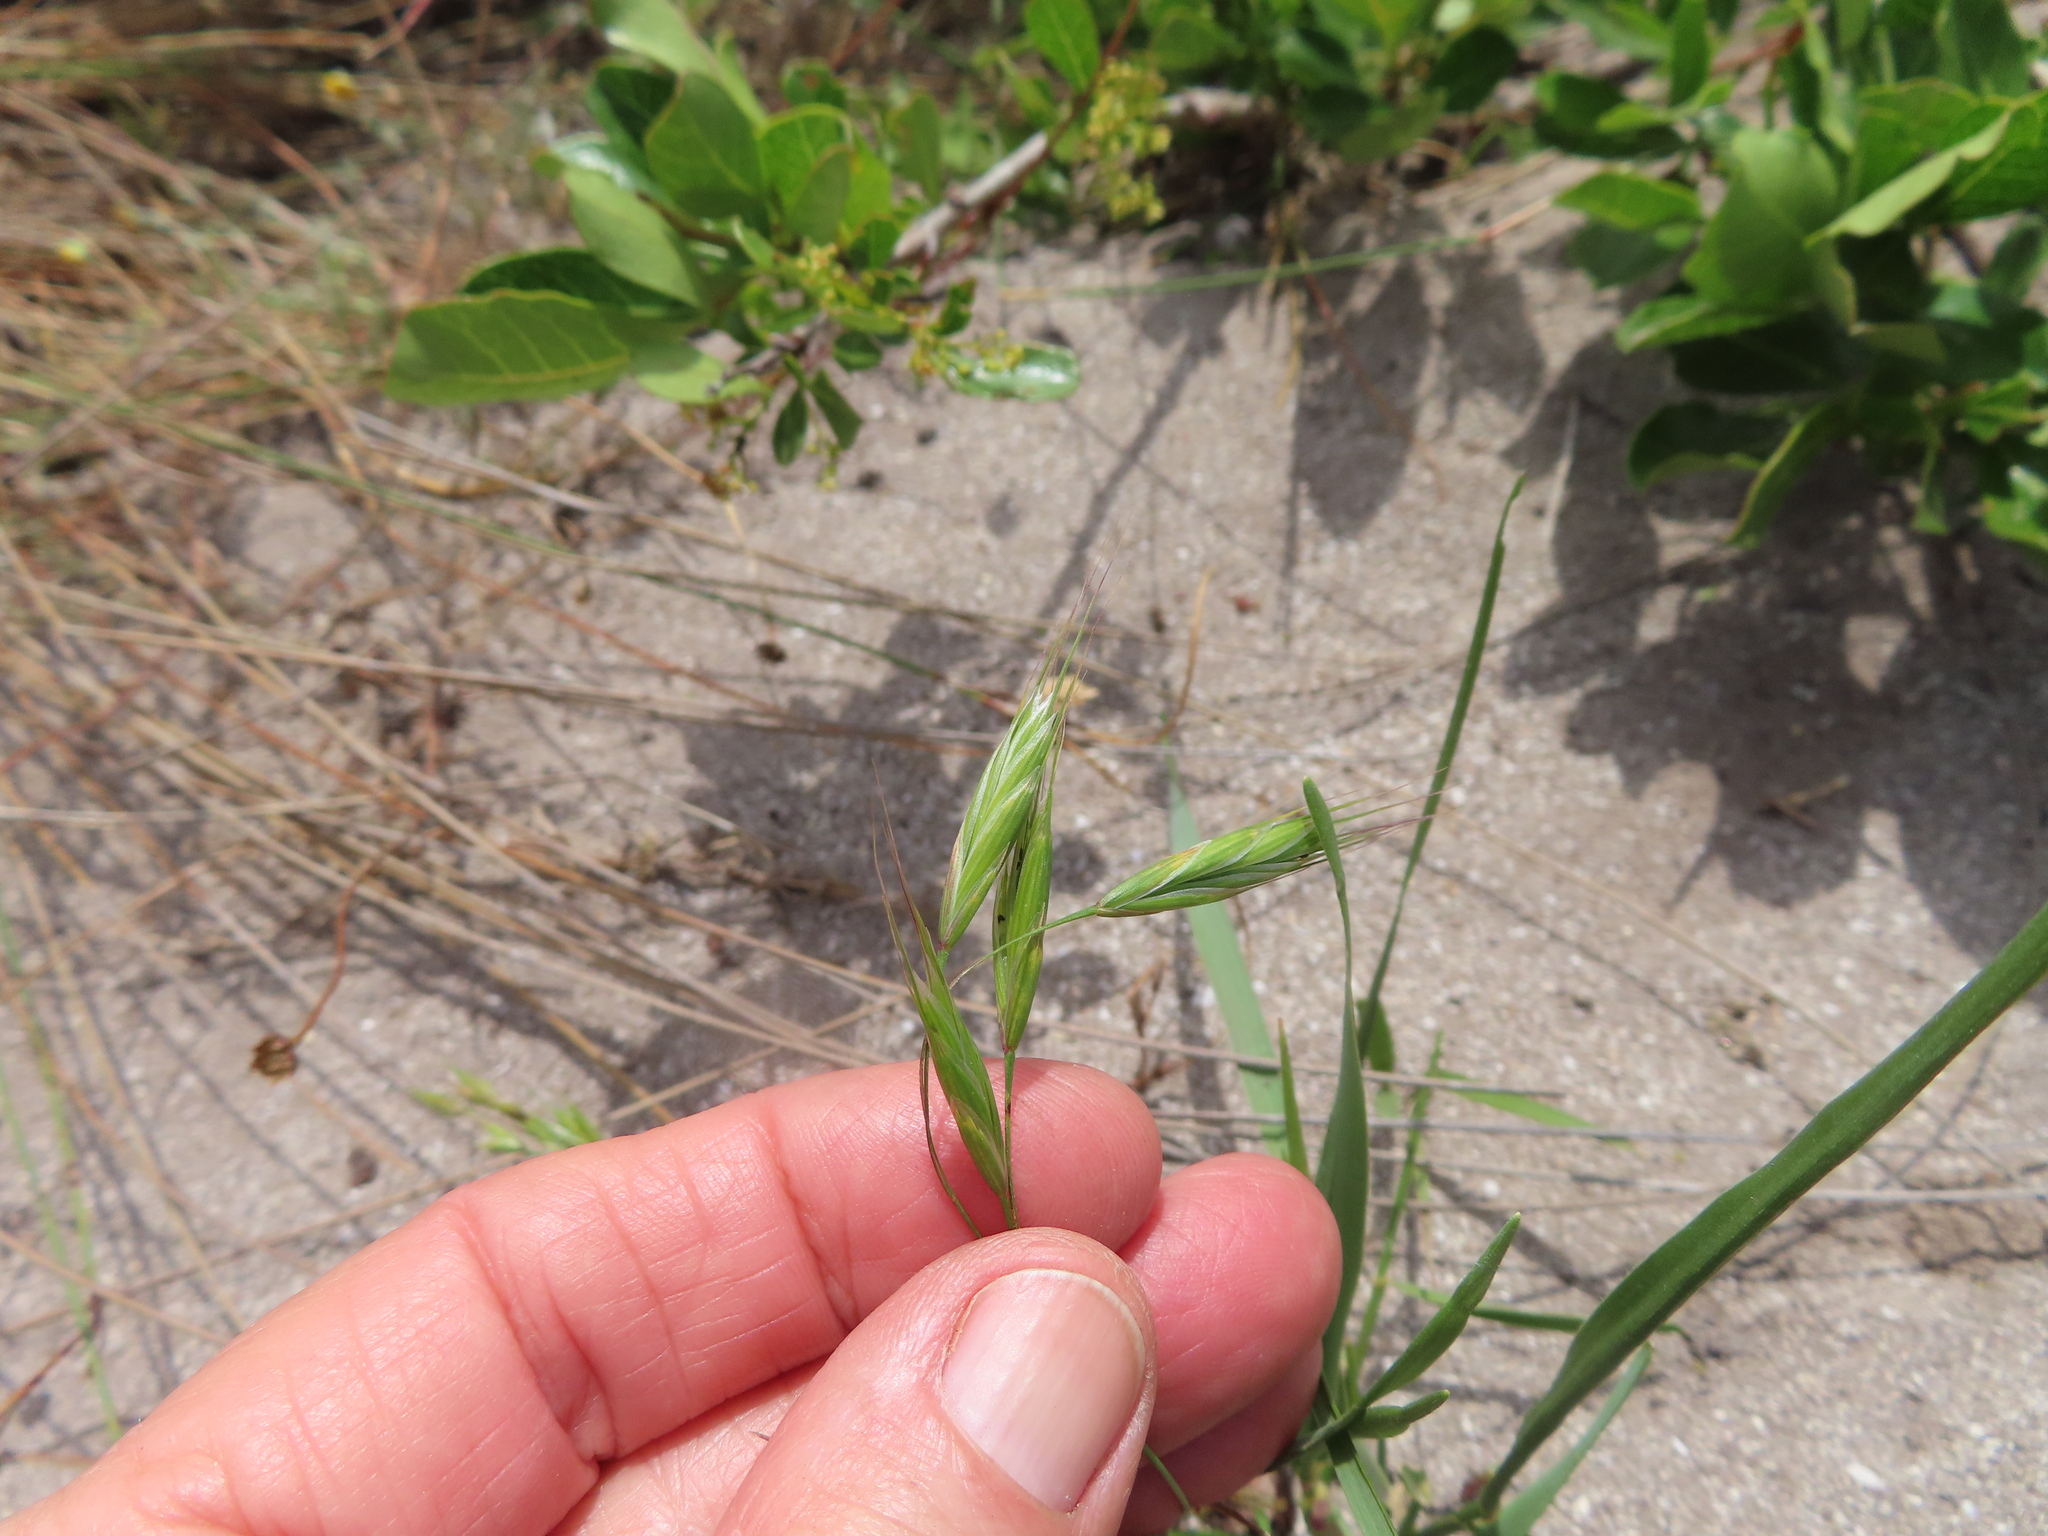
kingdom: Plantae
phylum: Tracheophyta
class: Liliopsida
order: Poales
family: Poaceae
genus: Bromus
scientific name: Bromus catharticus
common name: Rescuegrass
